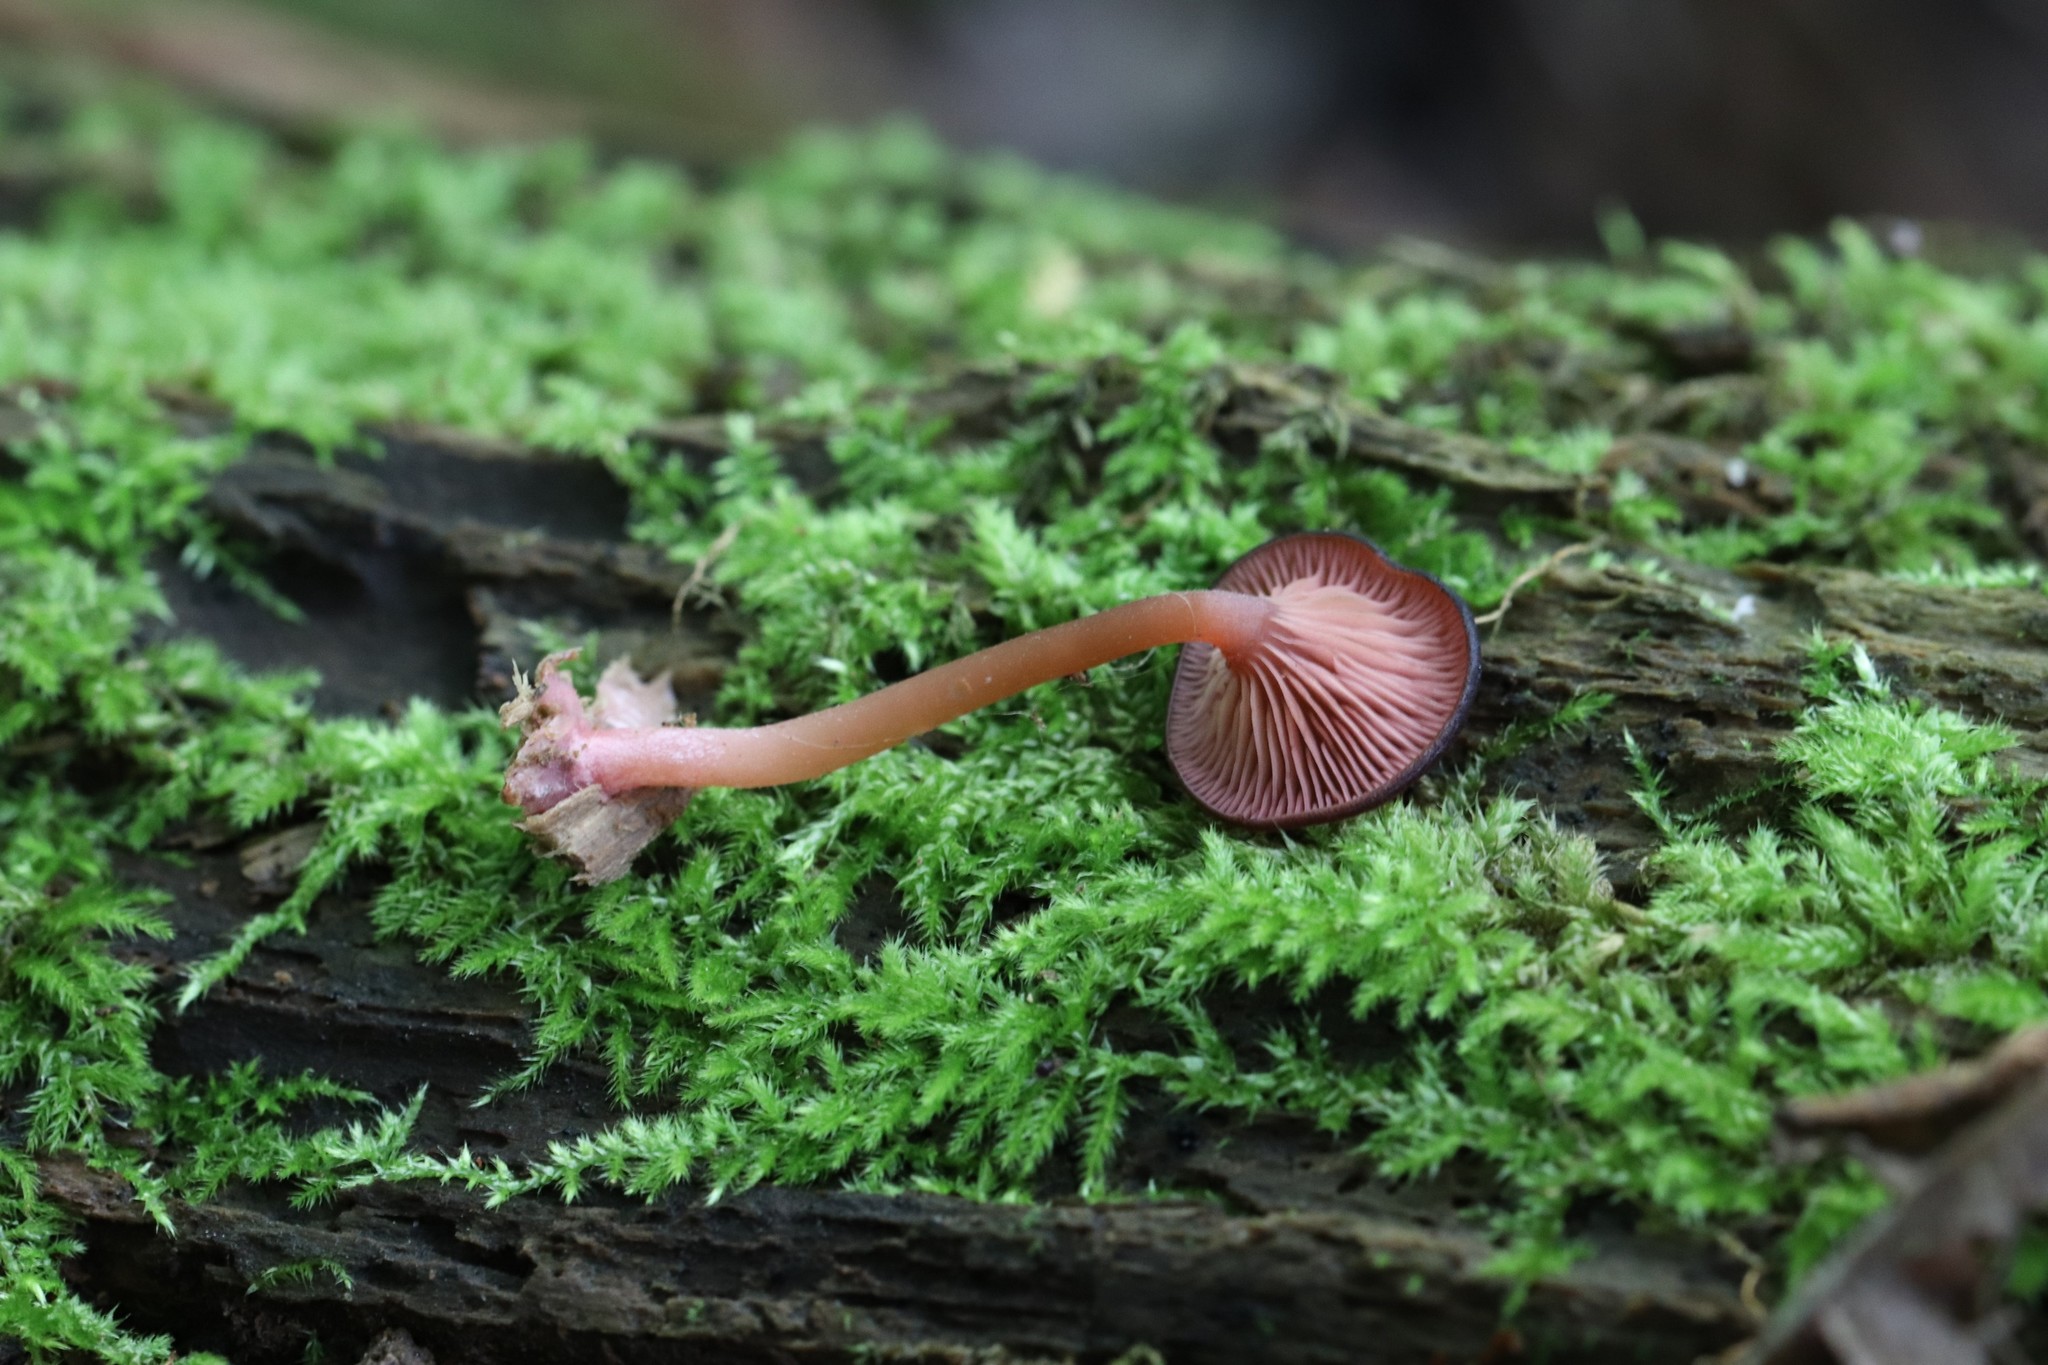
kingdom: Fungi
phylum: Basidiomycota
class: Agaricomycetes
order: Agaricales
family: Hygrophoraceae
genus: Arrhenia
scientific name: Arrhenia discorosea
